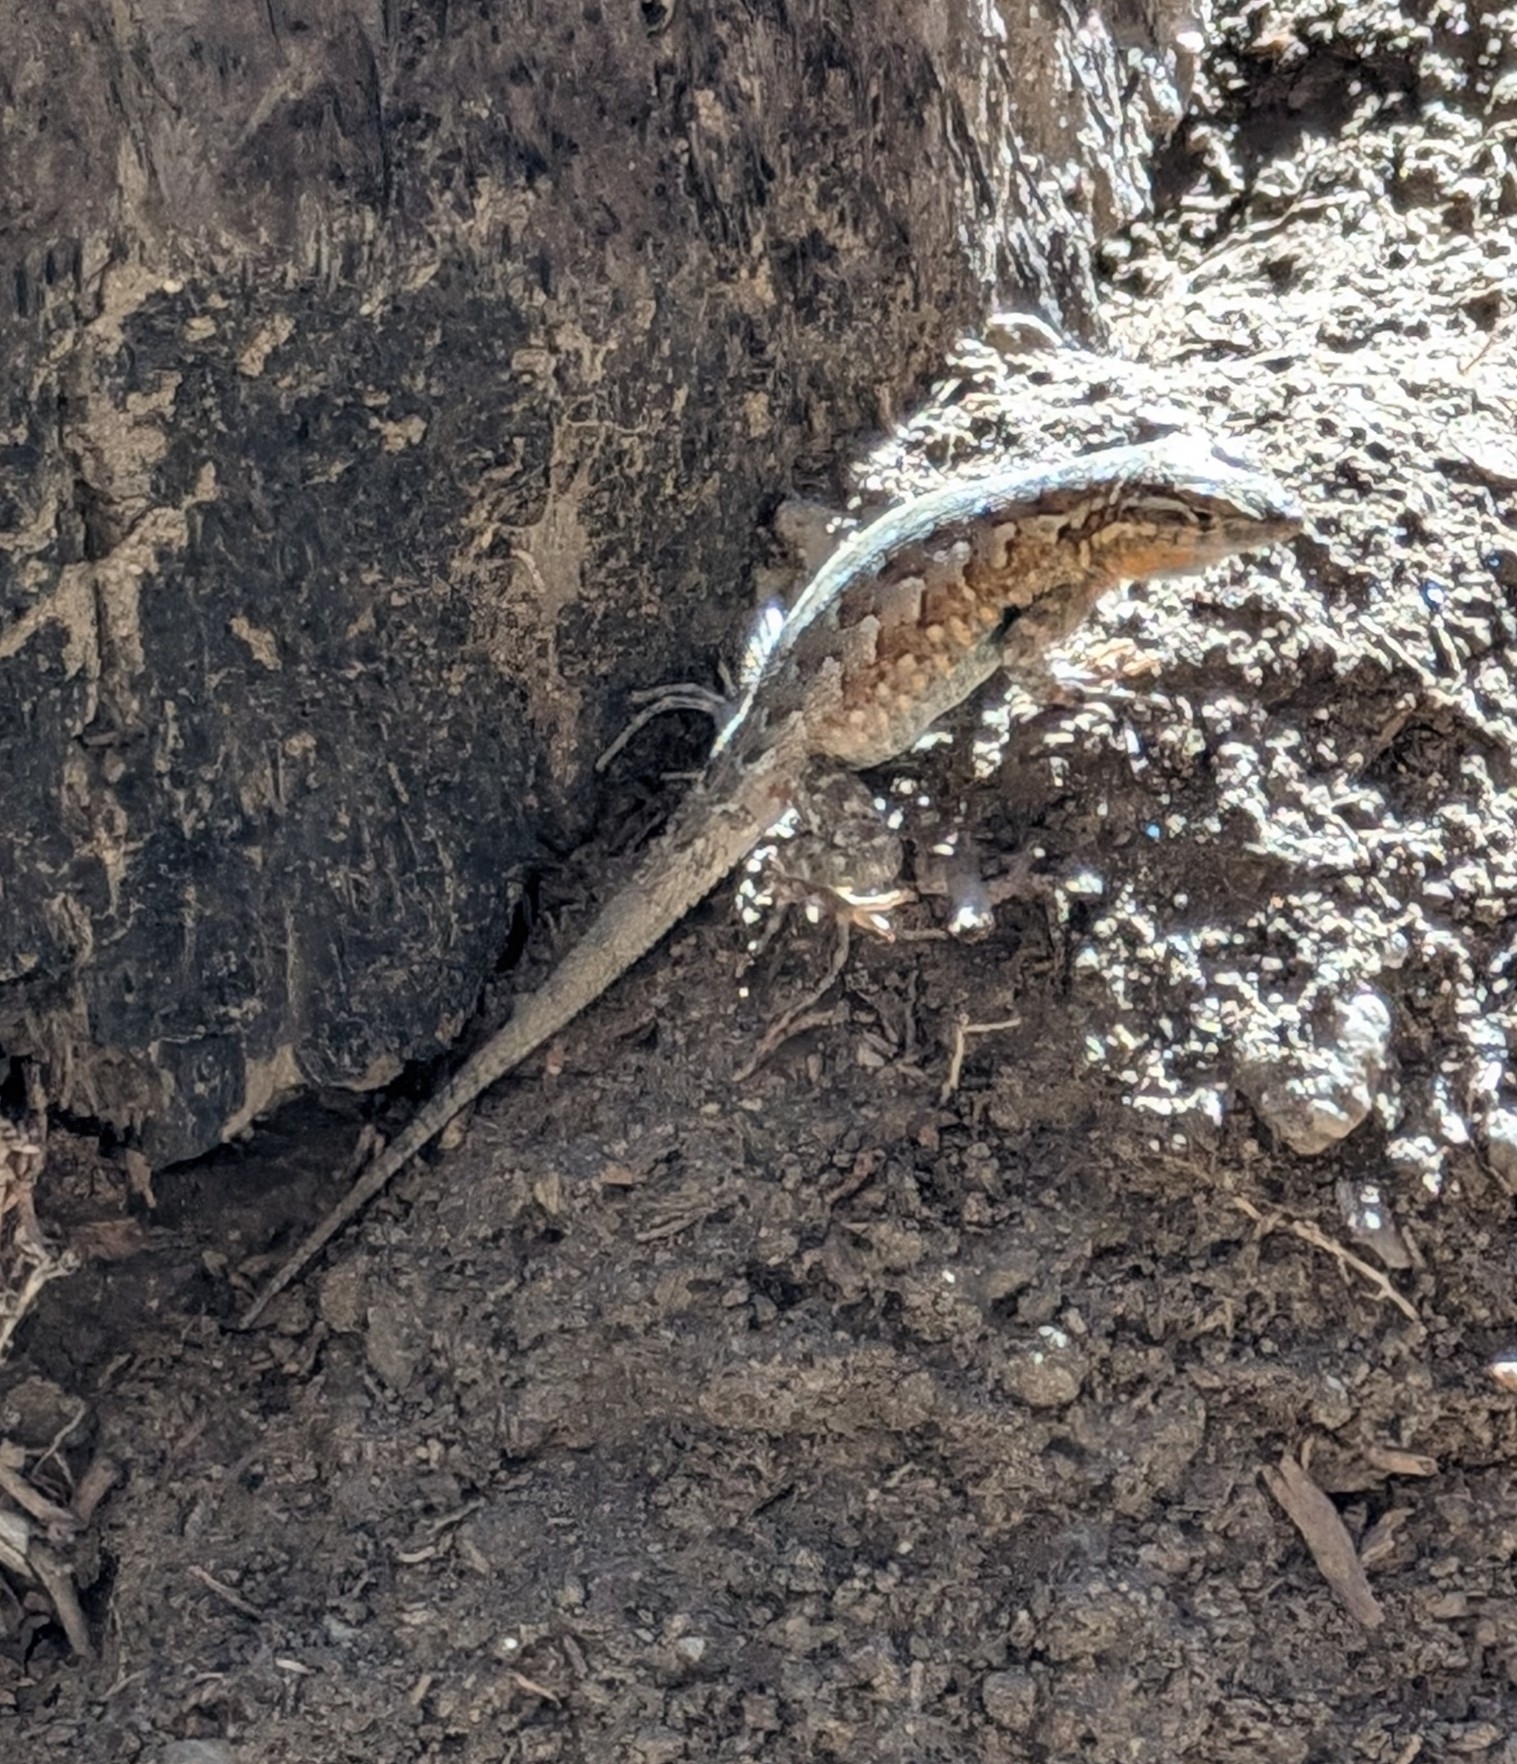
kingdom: Animalia
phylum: Chordata
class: Squamata
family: Phrynosomatidae
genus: Uta
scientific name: Uta stansburiana
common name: Side-blotched lizard
